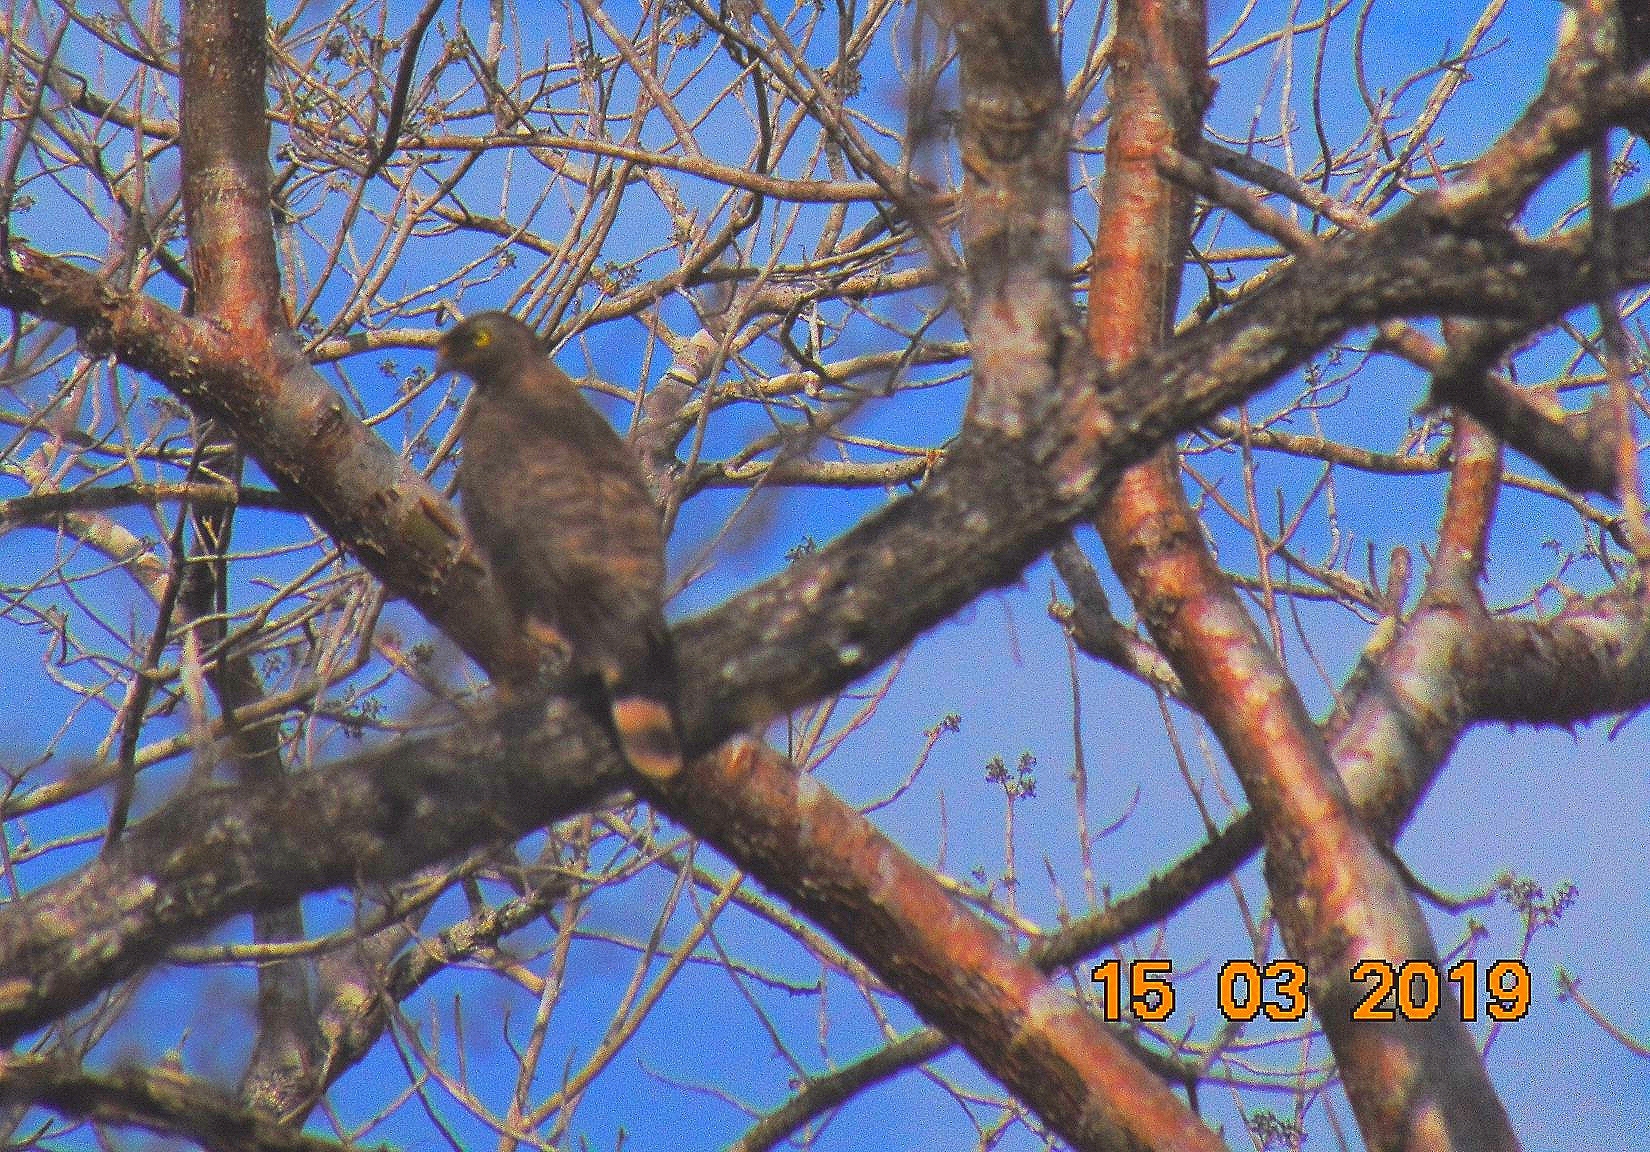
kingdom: Animalia
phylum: Chordata
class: Aves
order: Accipitriformes
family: Accipitridae
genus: Rupornis
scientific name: Rupornis magnirostris
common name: Roadside hawk
